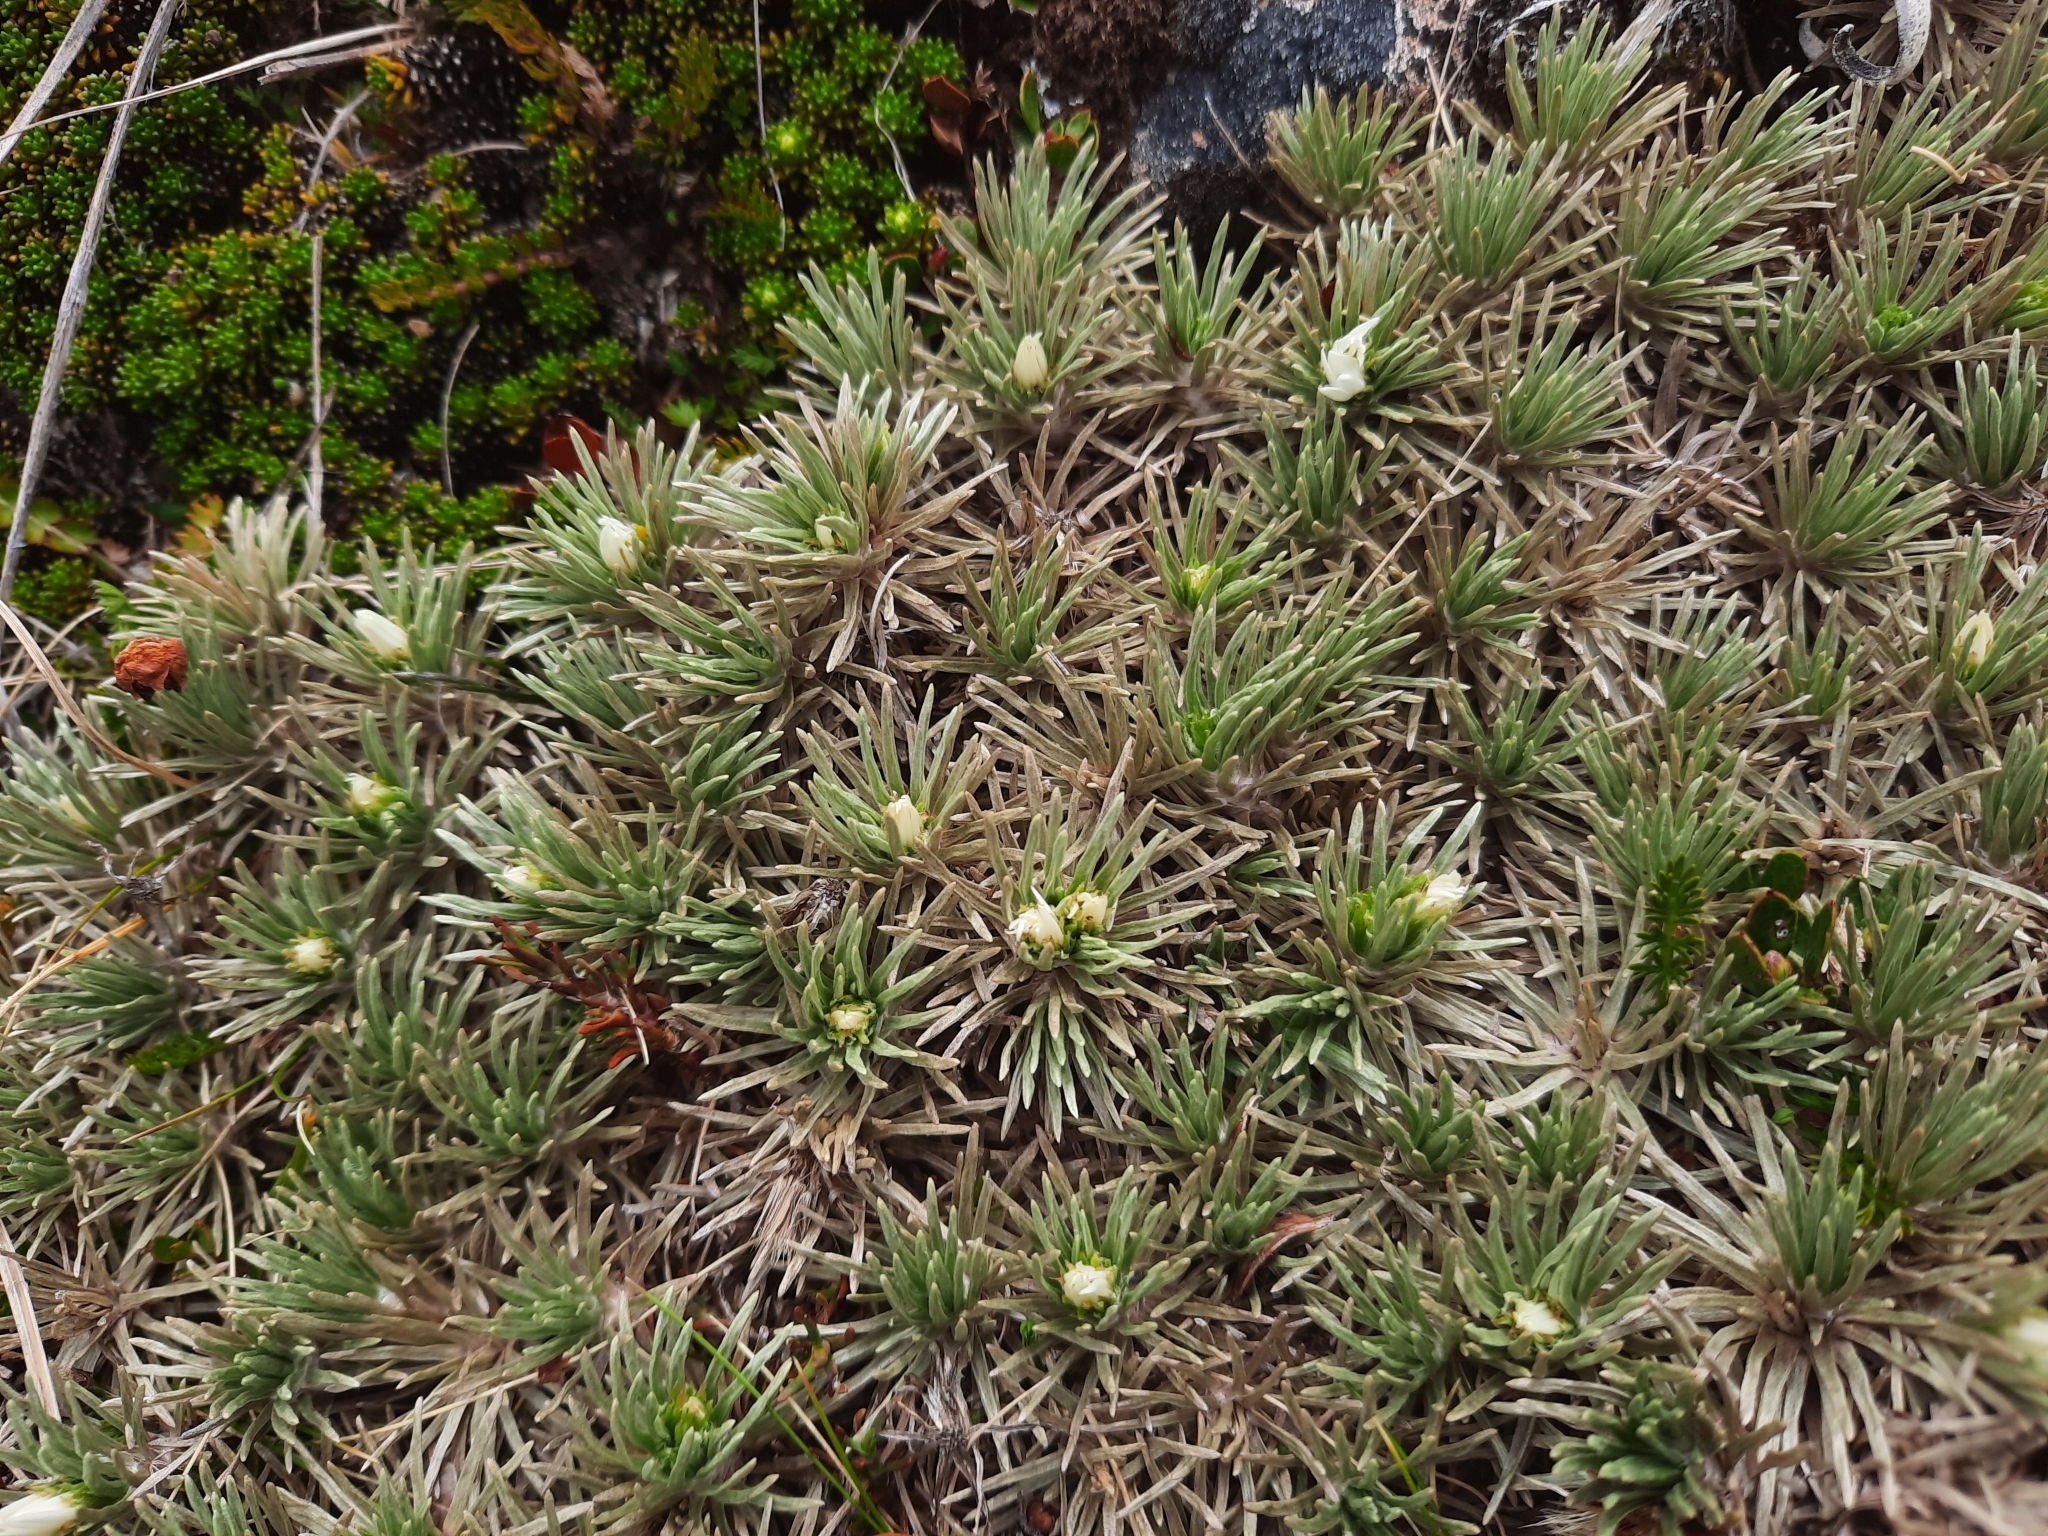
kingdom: Plantae
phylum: Tracheophyta
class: Magnoliopsida
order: Asterales
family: Asteraceae
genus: Celmisia
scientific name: Celmisia sessiliflora
